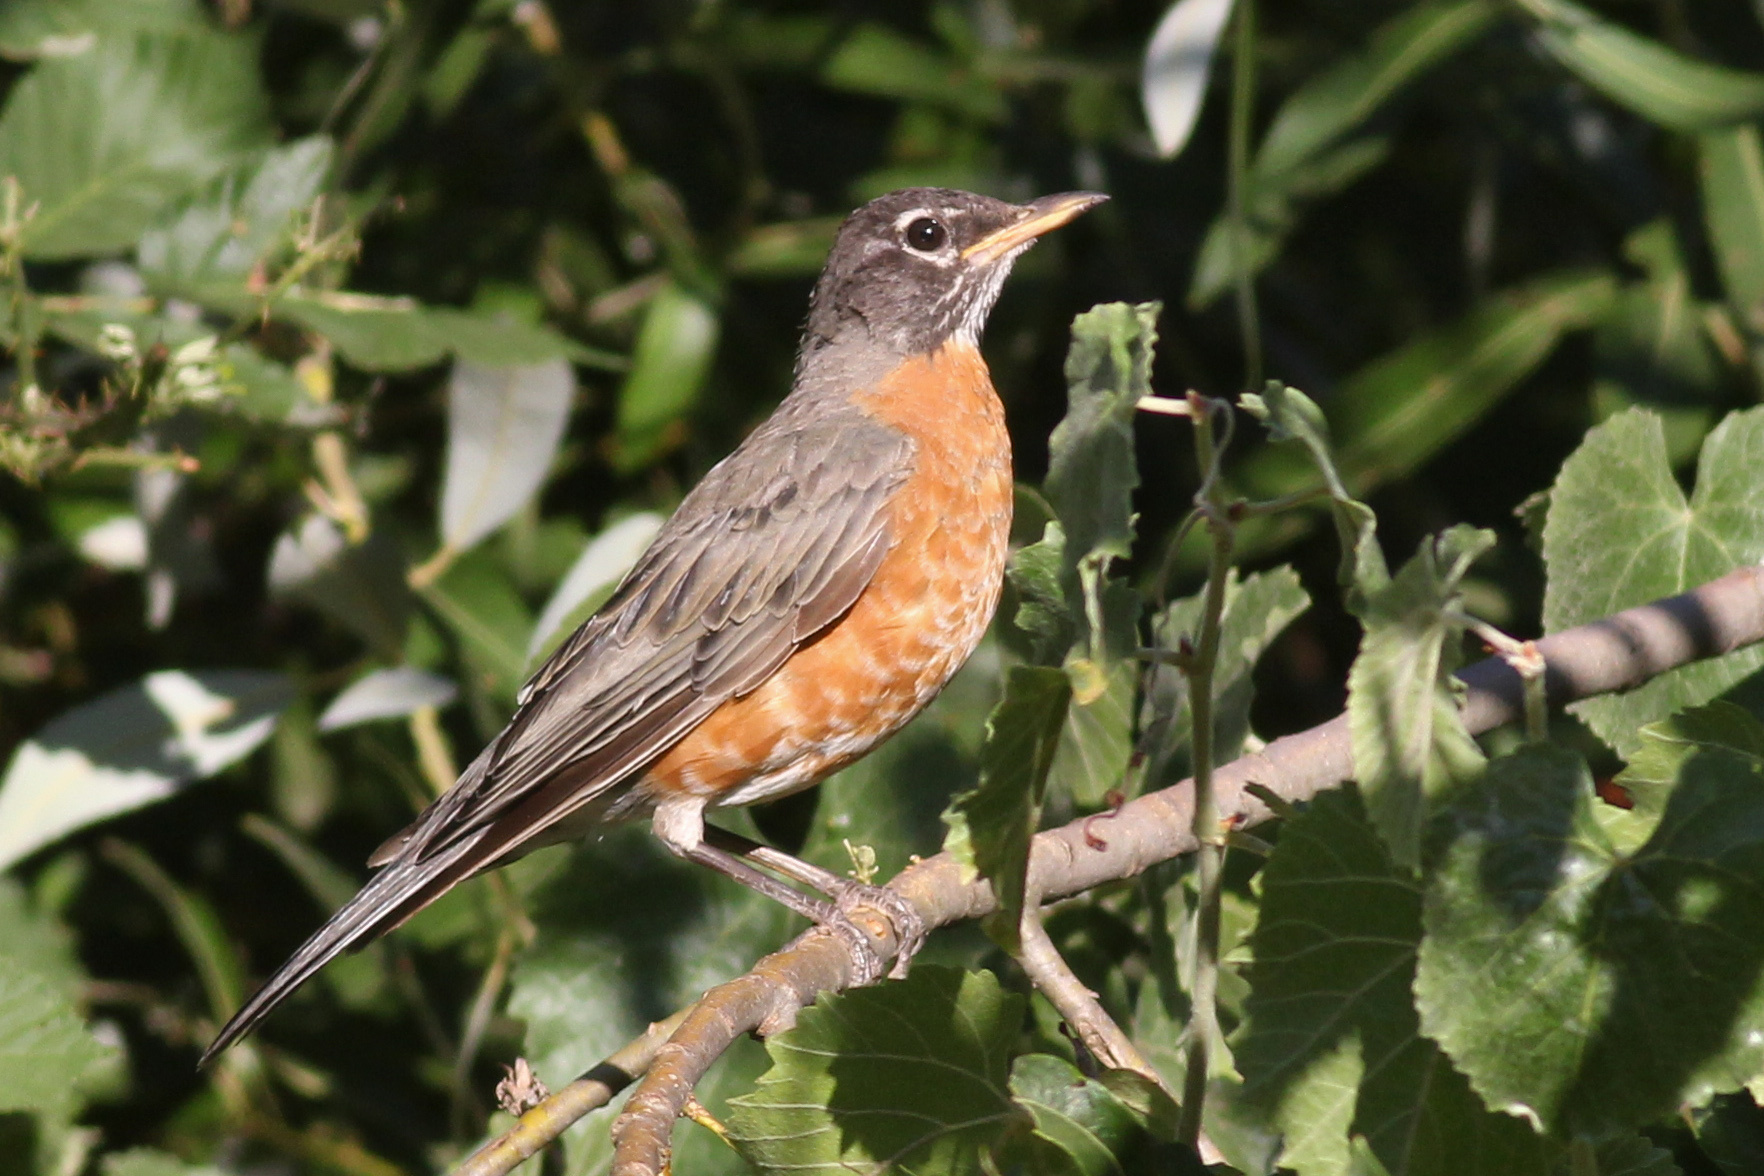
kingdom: Animalia
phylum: Chordata
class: Aves
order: Passeriformes
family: Turdidae
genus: Turdus
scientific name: Turdus migratorius
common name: American robin
